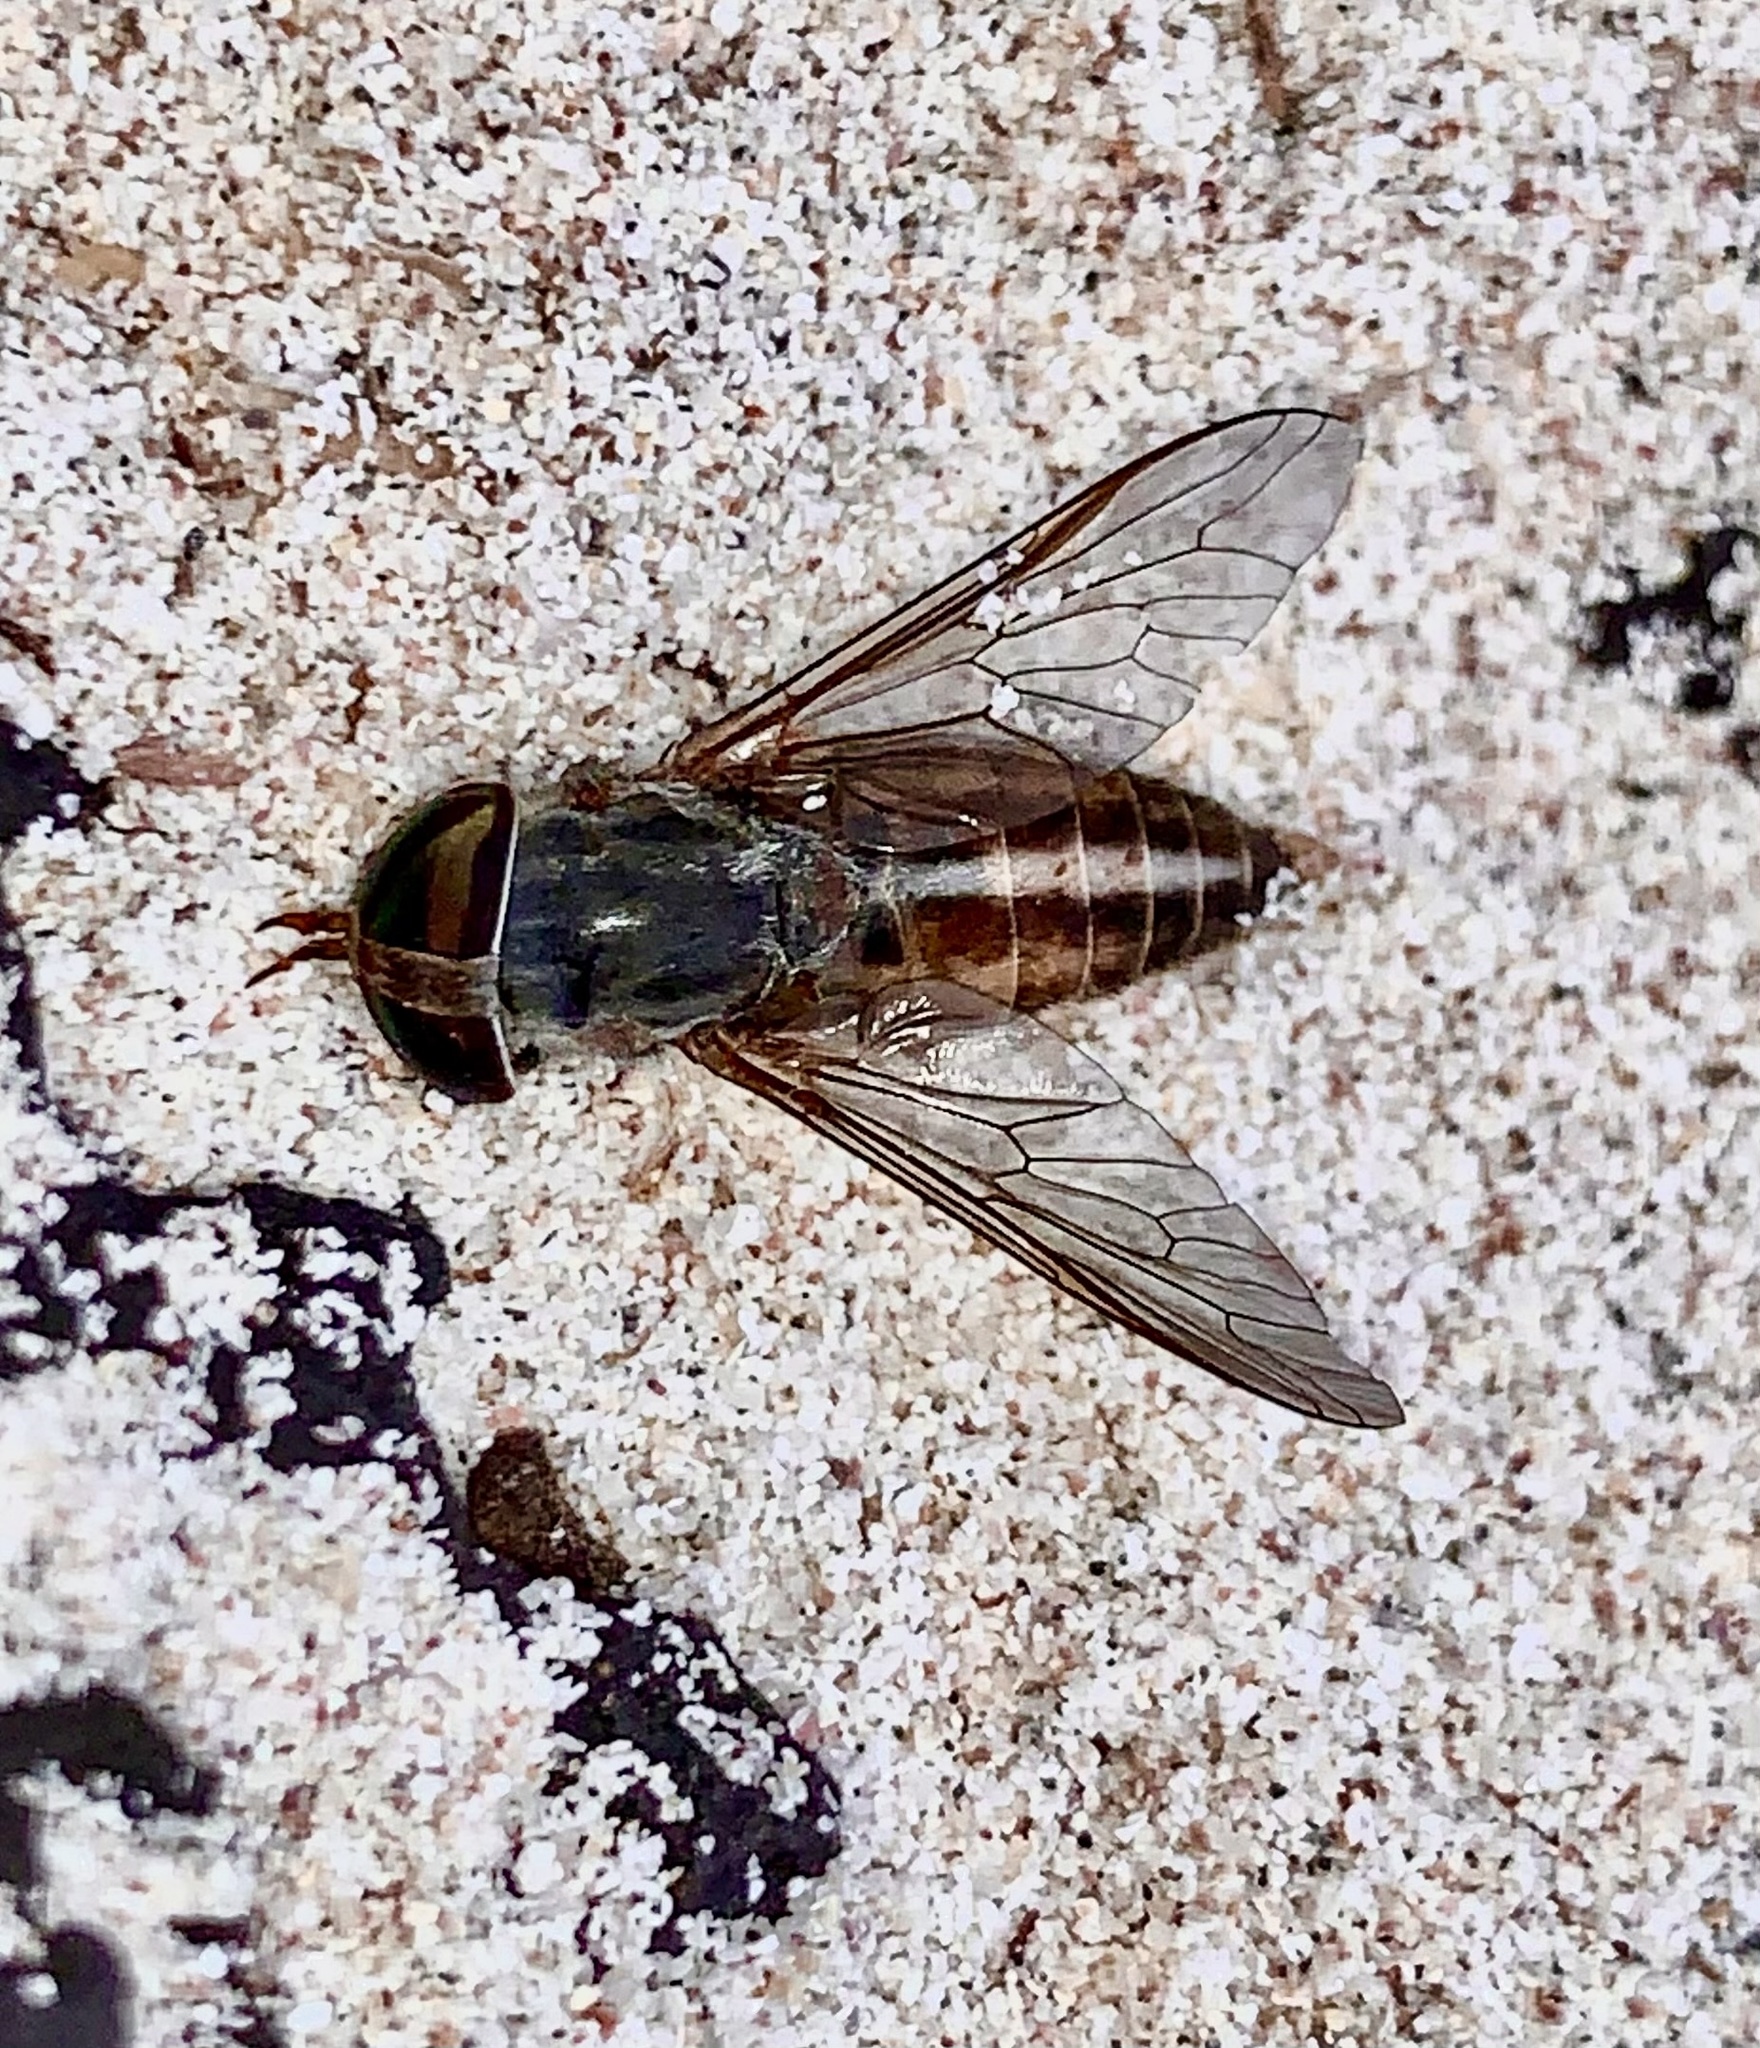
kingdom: Animalia
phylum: Arthropoda
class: Insecta
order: Diptera
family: Tabanidae
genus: Tabanus
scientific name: Tabanus vittiger
